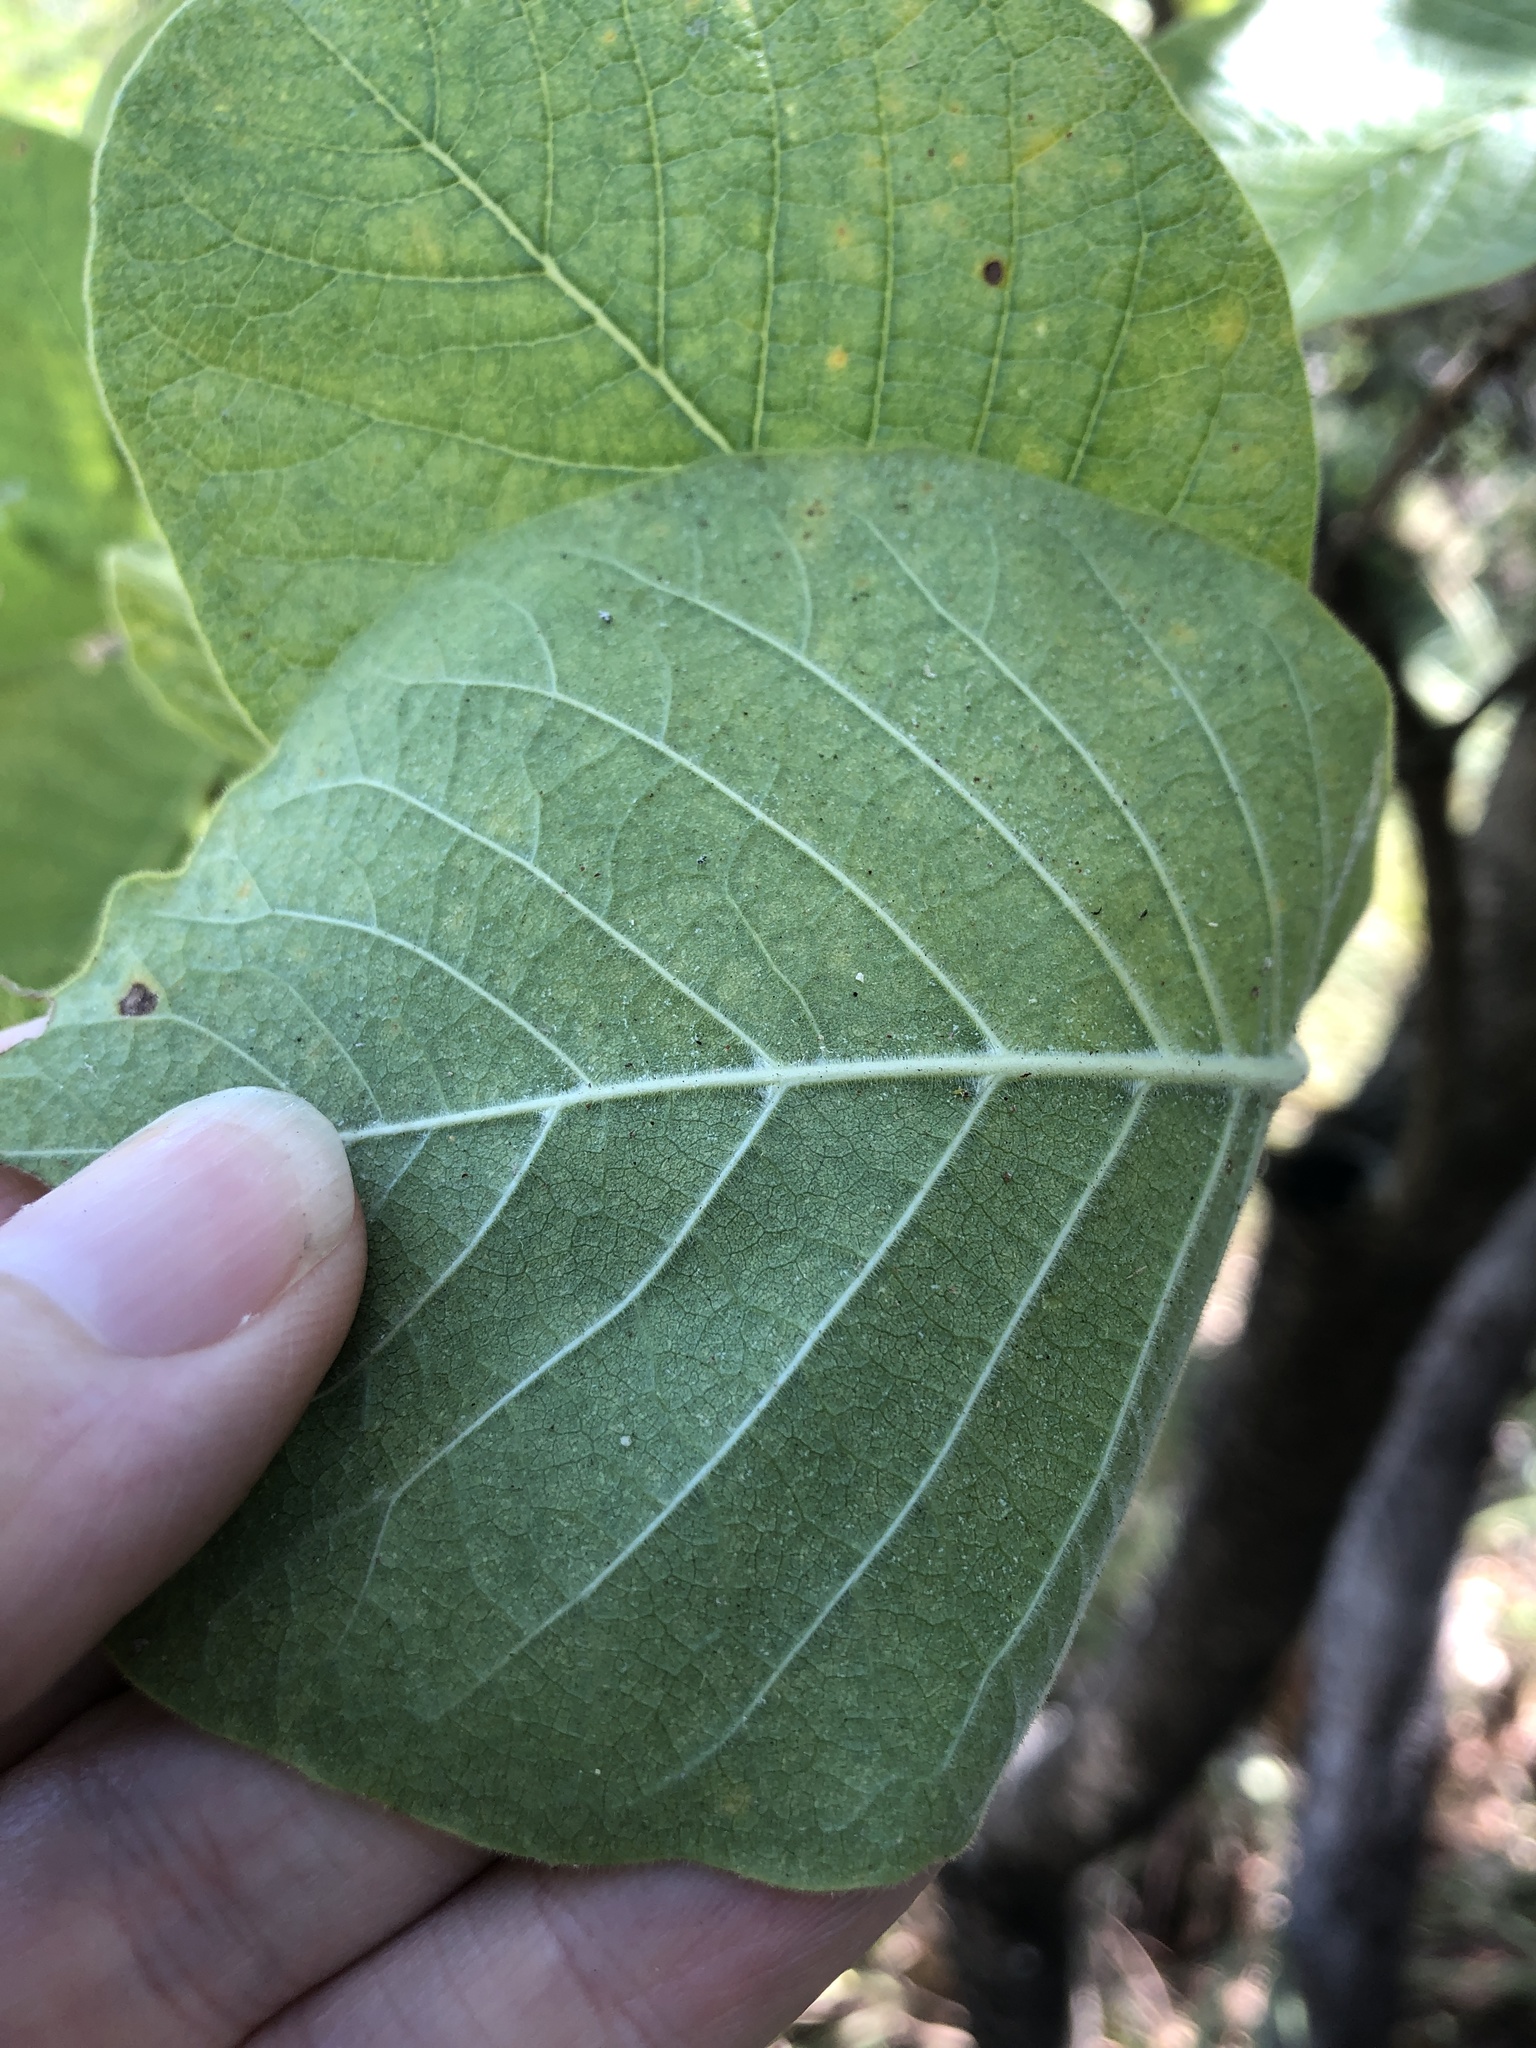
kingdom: Plantae
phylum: Tracheophyta
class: Magnoliopsida
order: Gentianales
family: Rubiaceae
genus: Larsenaikia
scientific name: Larsenaikia ochreata
